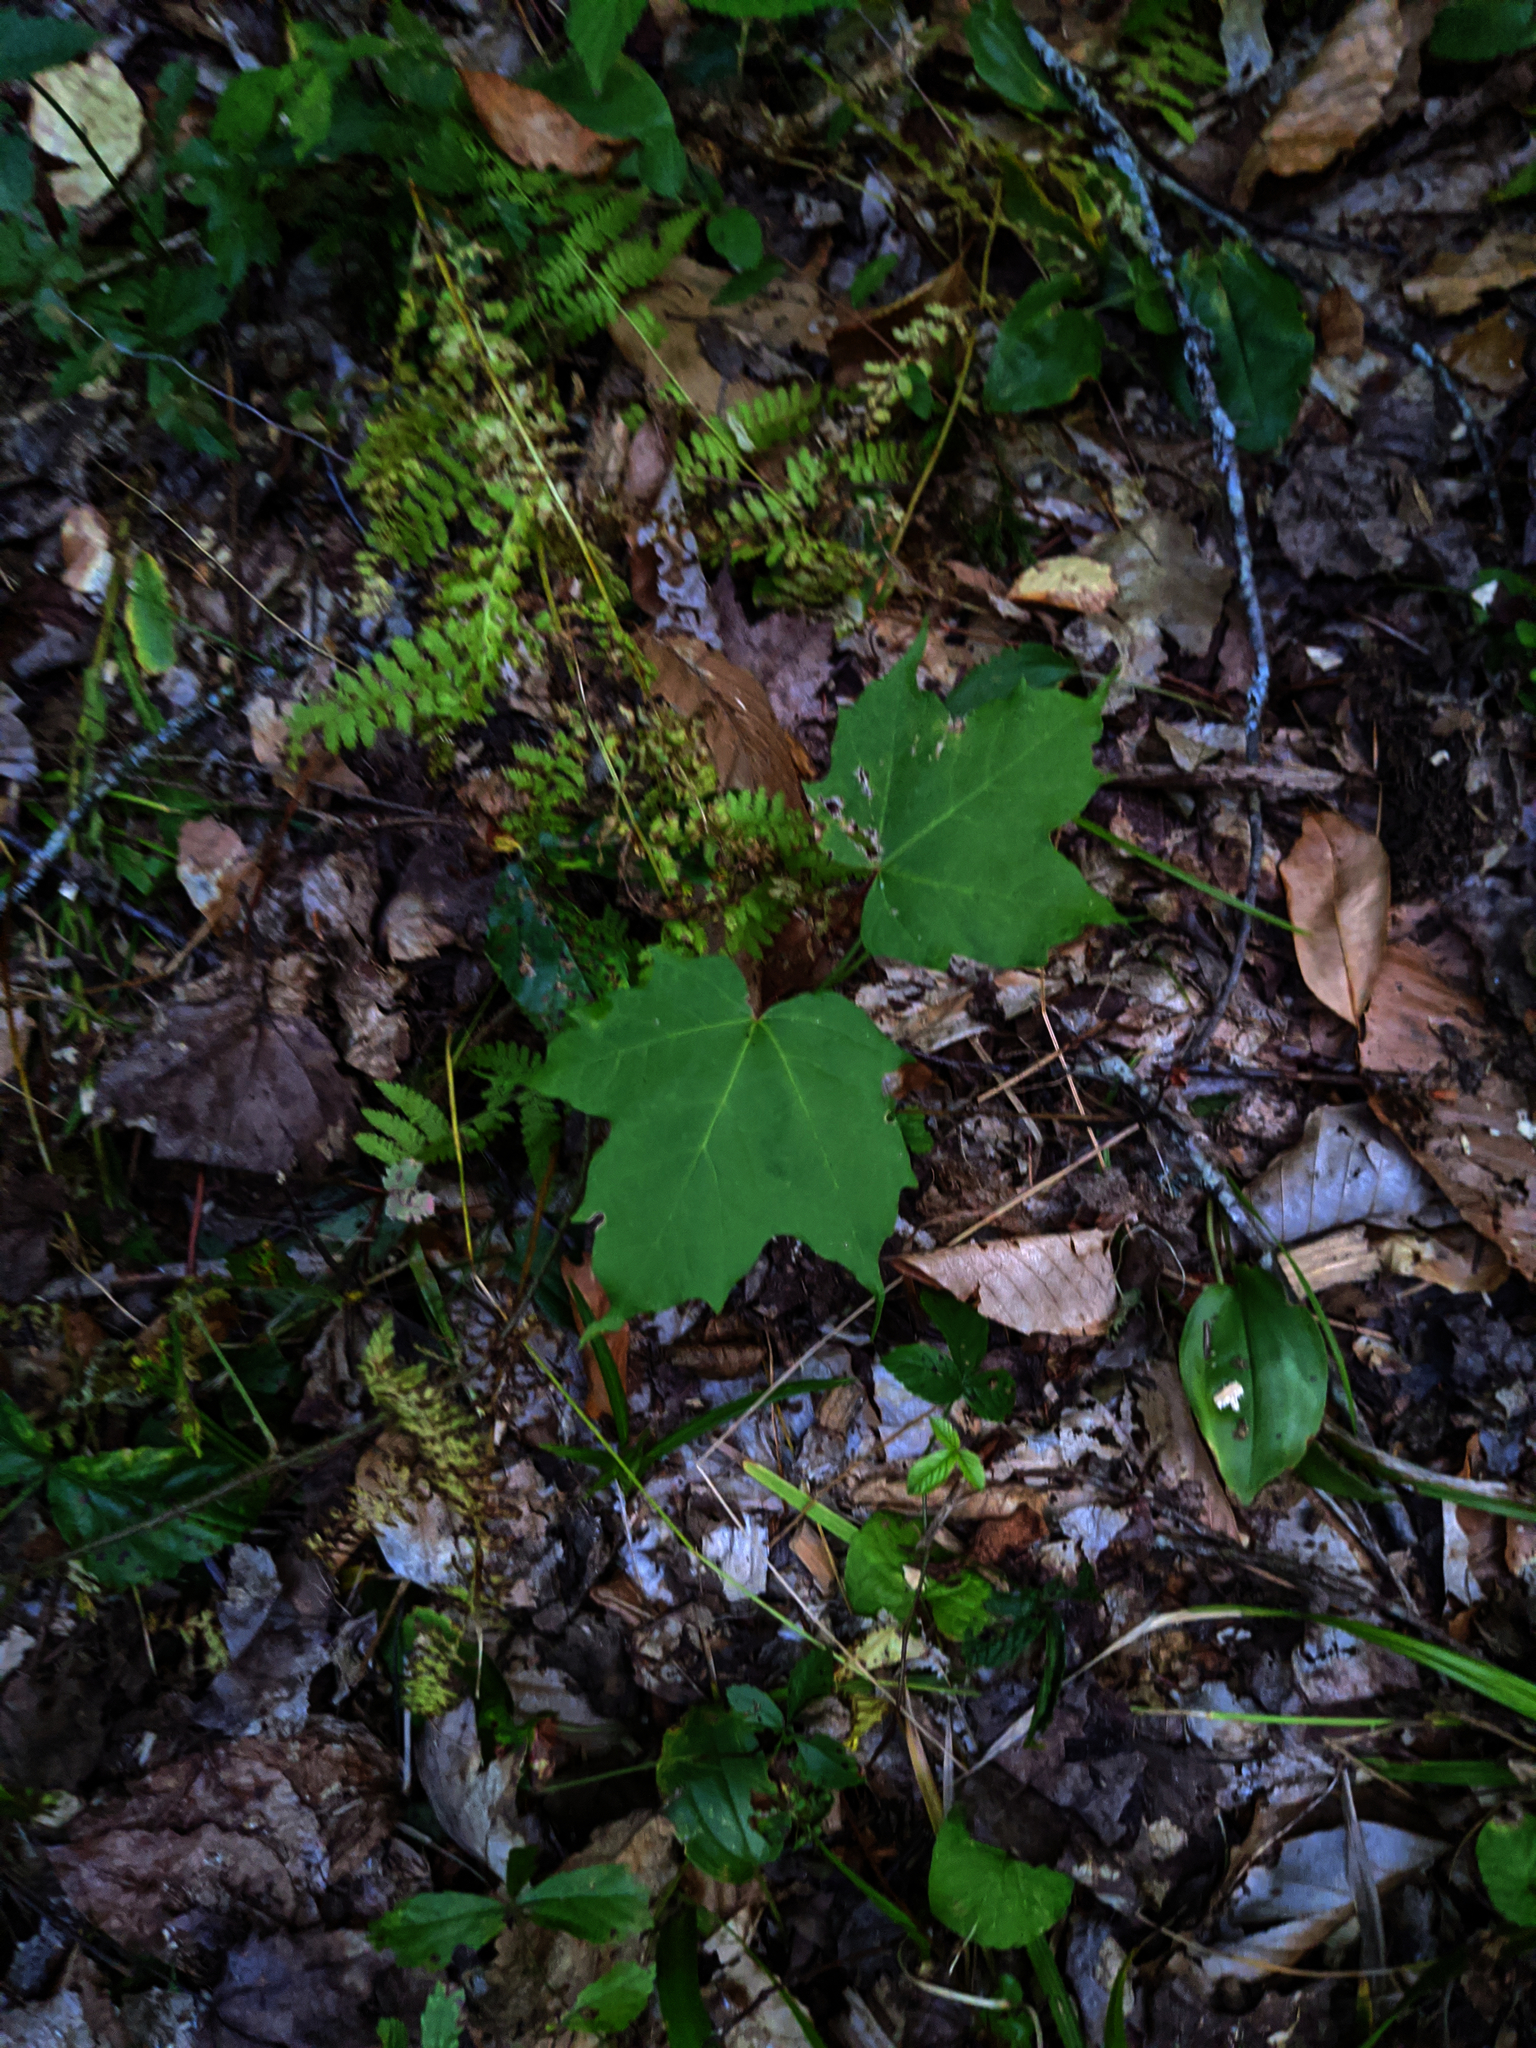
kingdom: Plantae
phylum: Tracheophyta
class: Magnoliopsida
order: Sapindales
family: Sapindaceae
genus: Acer
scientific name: Acer saccharum
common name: Sugar maple
